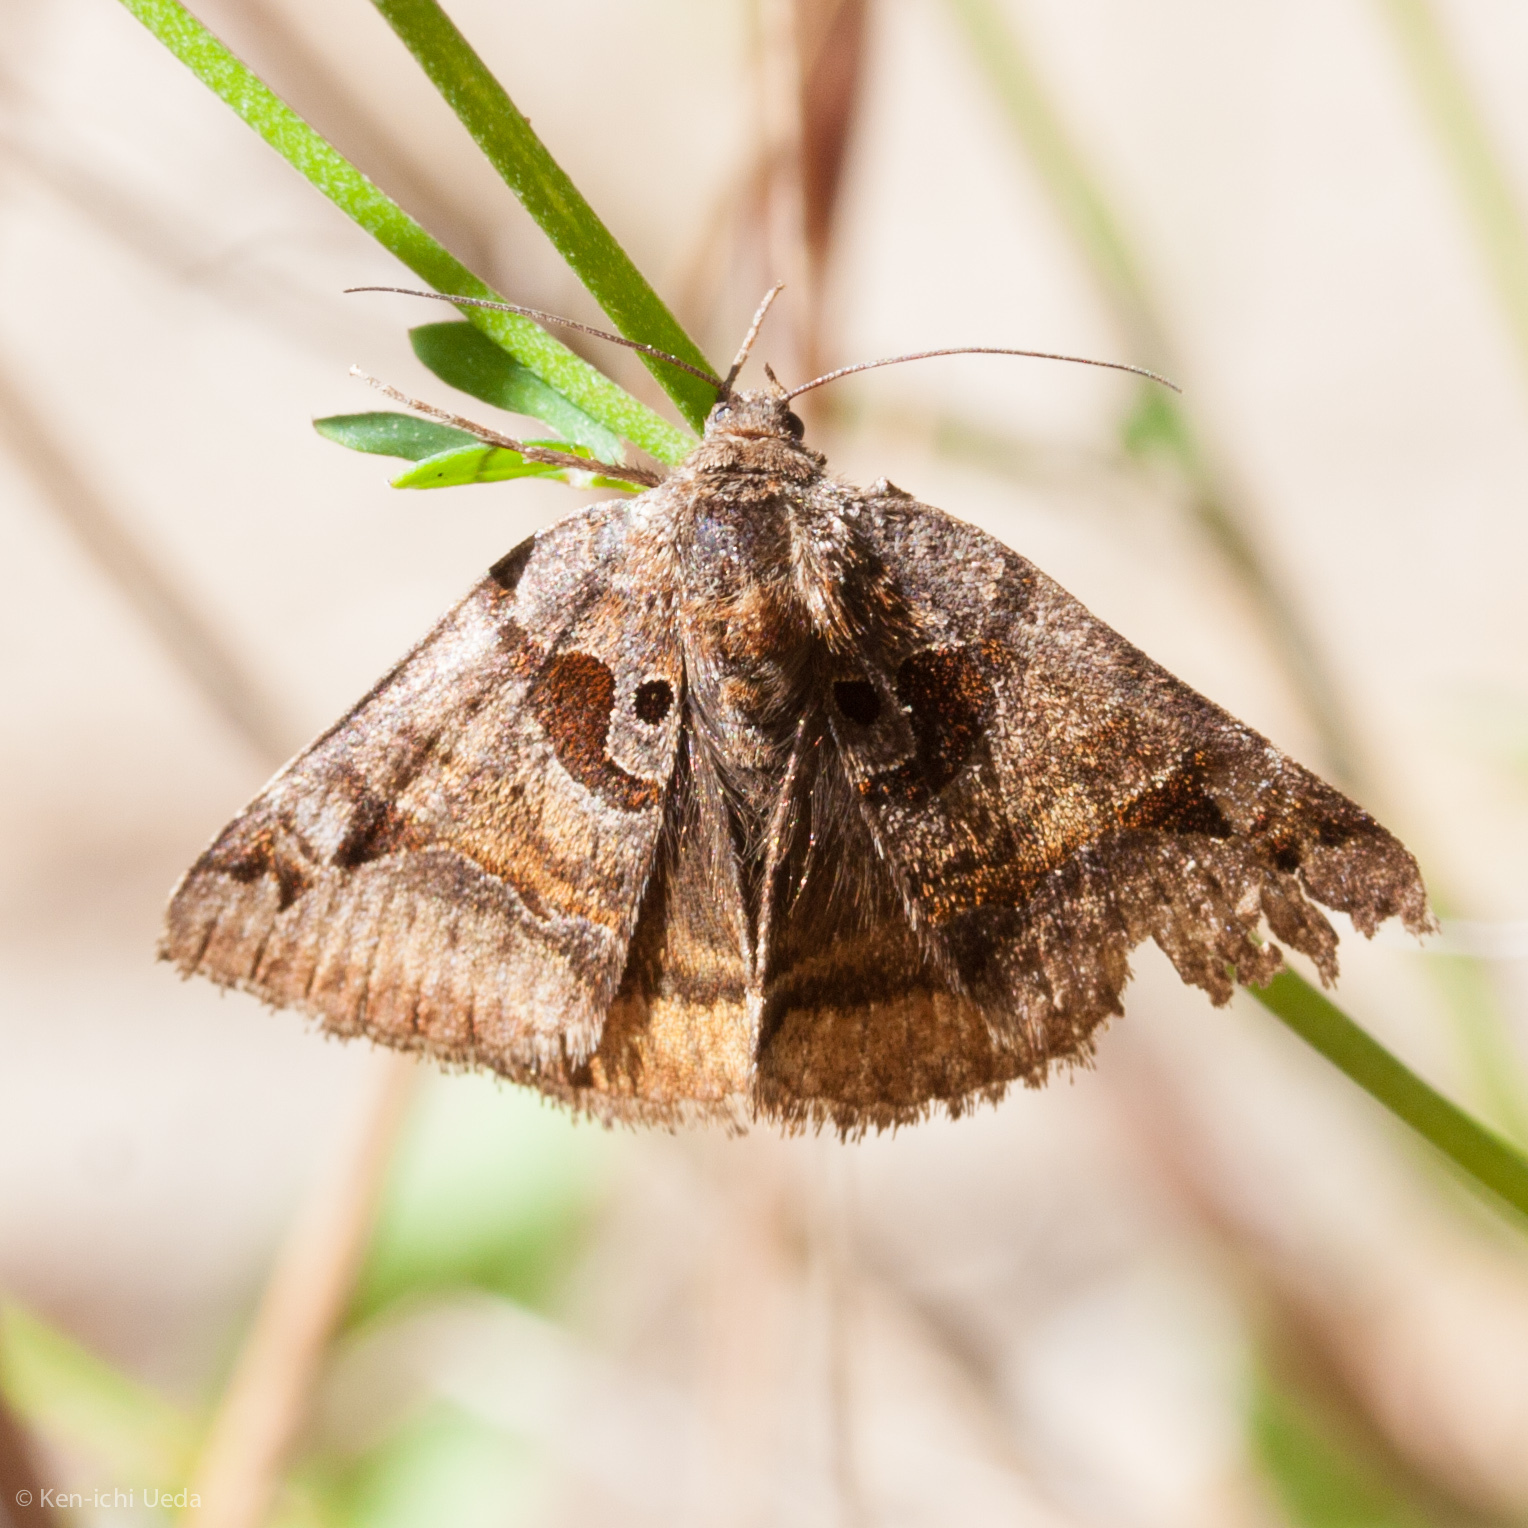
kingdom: Animalia
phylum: Arthropoda
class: Insecta
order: Lepidoptera
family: Erebidae
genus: Euclidia
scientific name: Euclidia ardita
